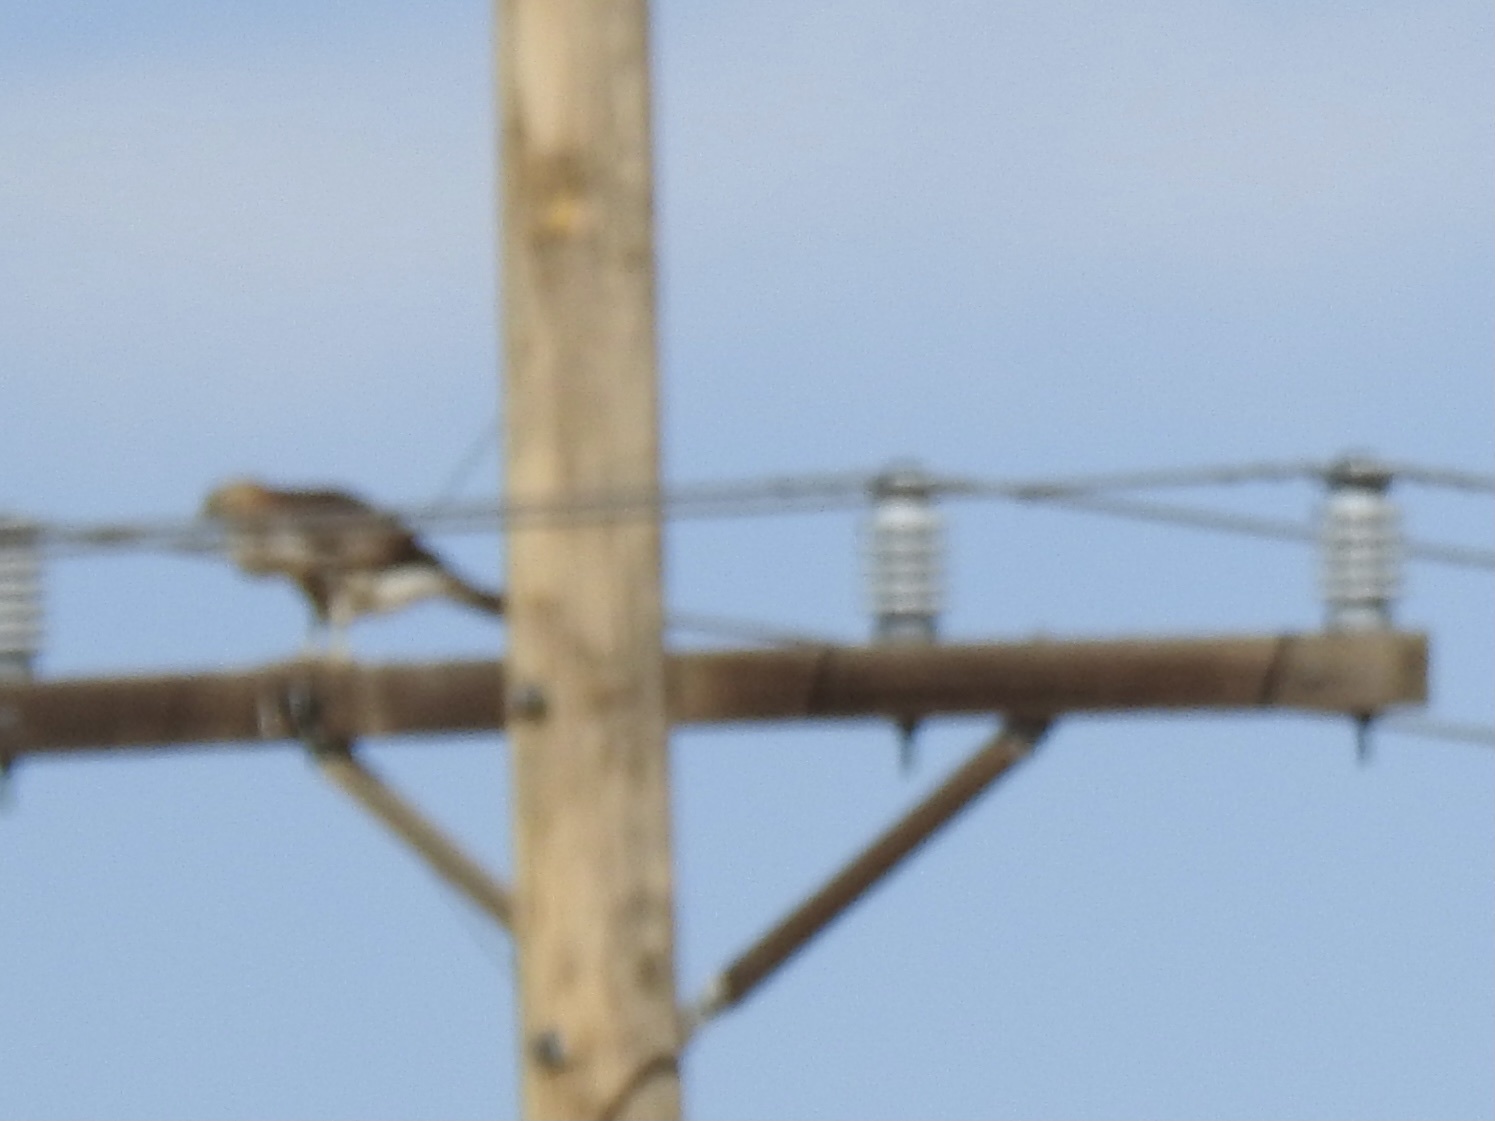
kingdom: Animalia
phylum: Chordata
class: Aves
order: Accipitriformes
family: Accipitridae
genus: Buteo
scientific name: Buteo jamaicensis
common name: Red-tailed hawk
